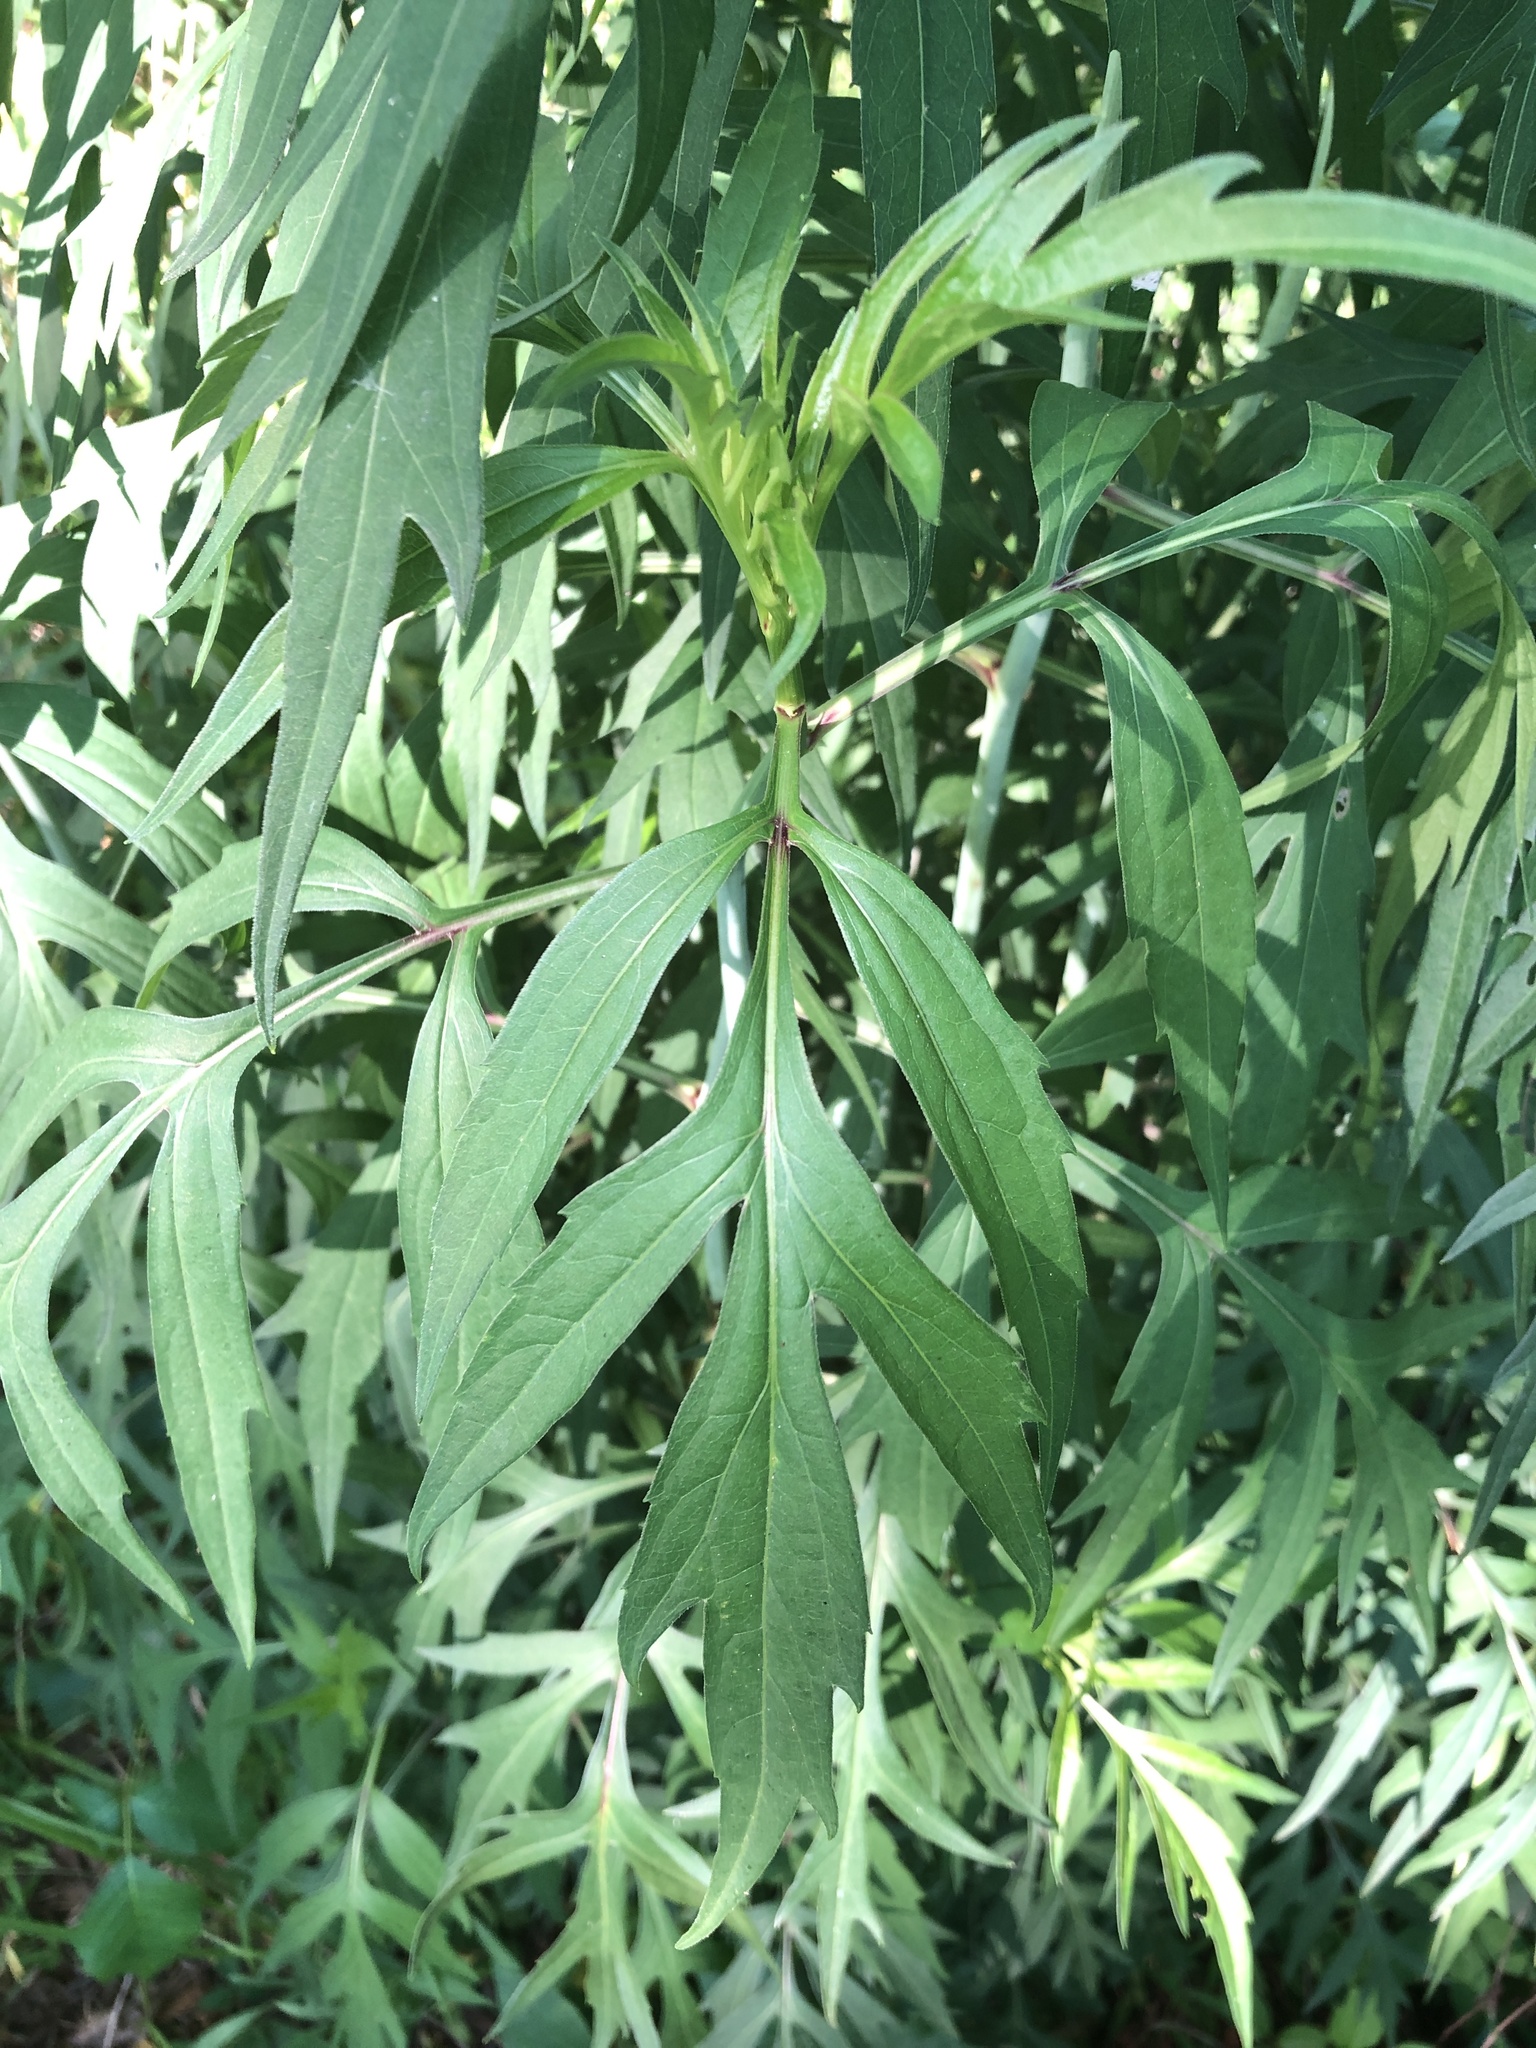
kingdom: Plantae
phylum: Tracheophyta
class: Magnoliopsida
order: Asterales
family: Asteraceae
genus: Rudbeckia
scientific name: Rudbeckia laciniata
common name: Coneflower
